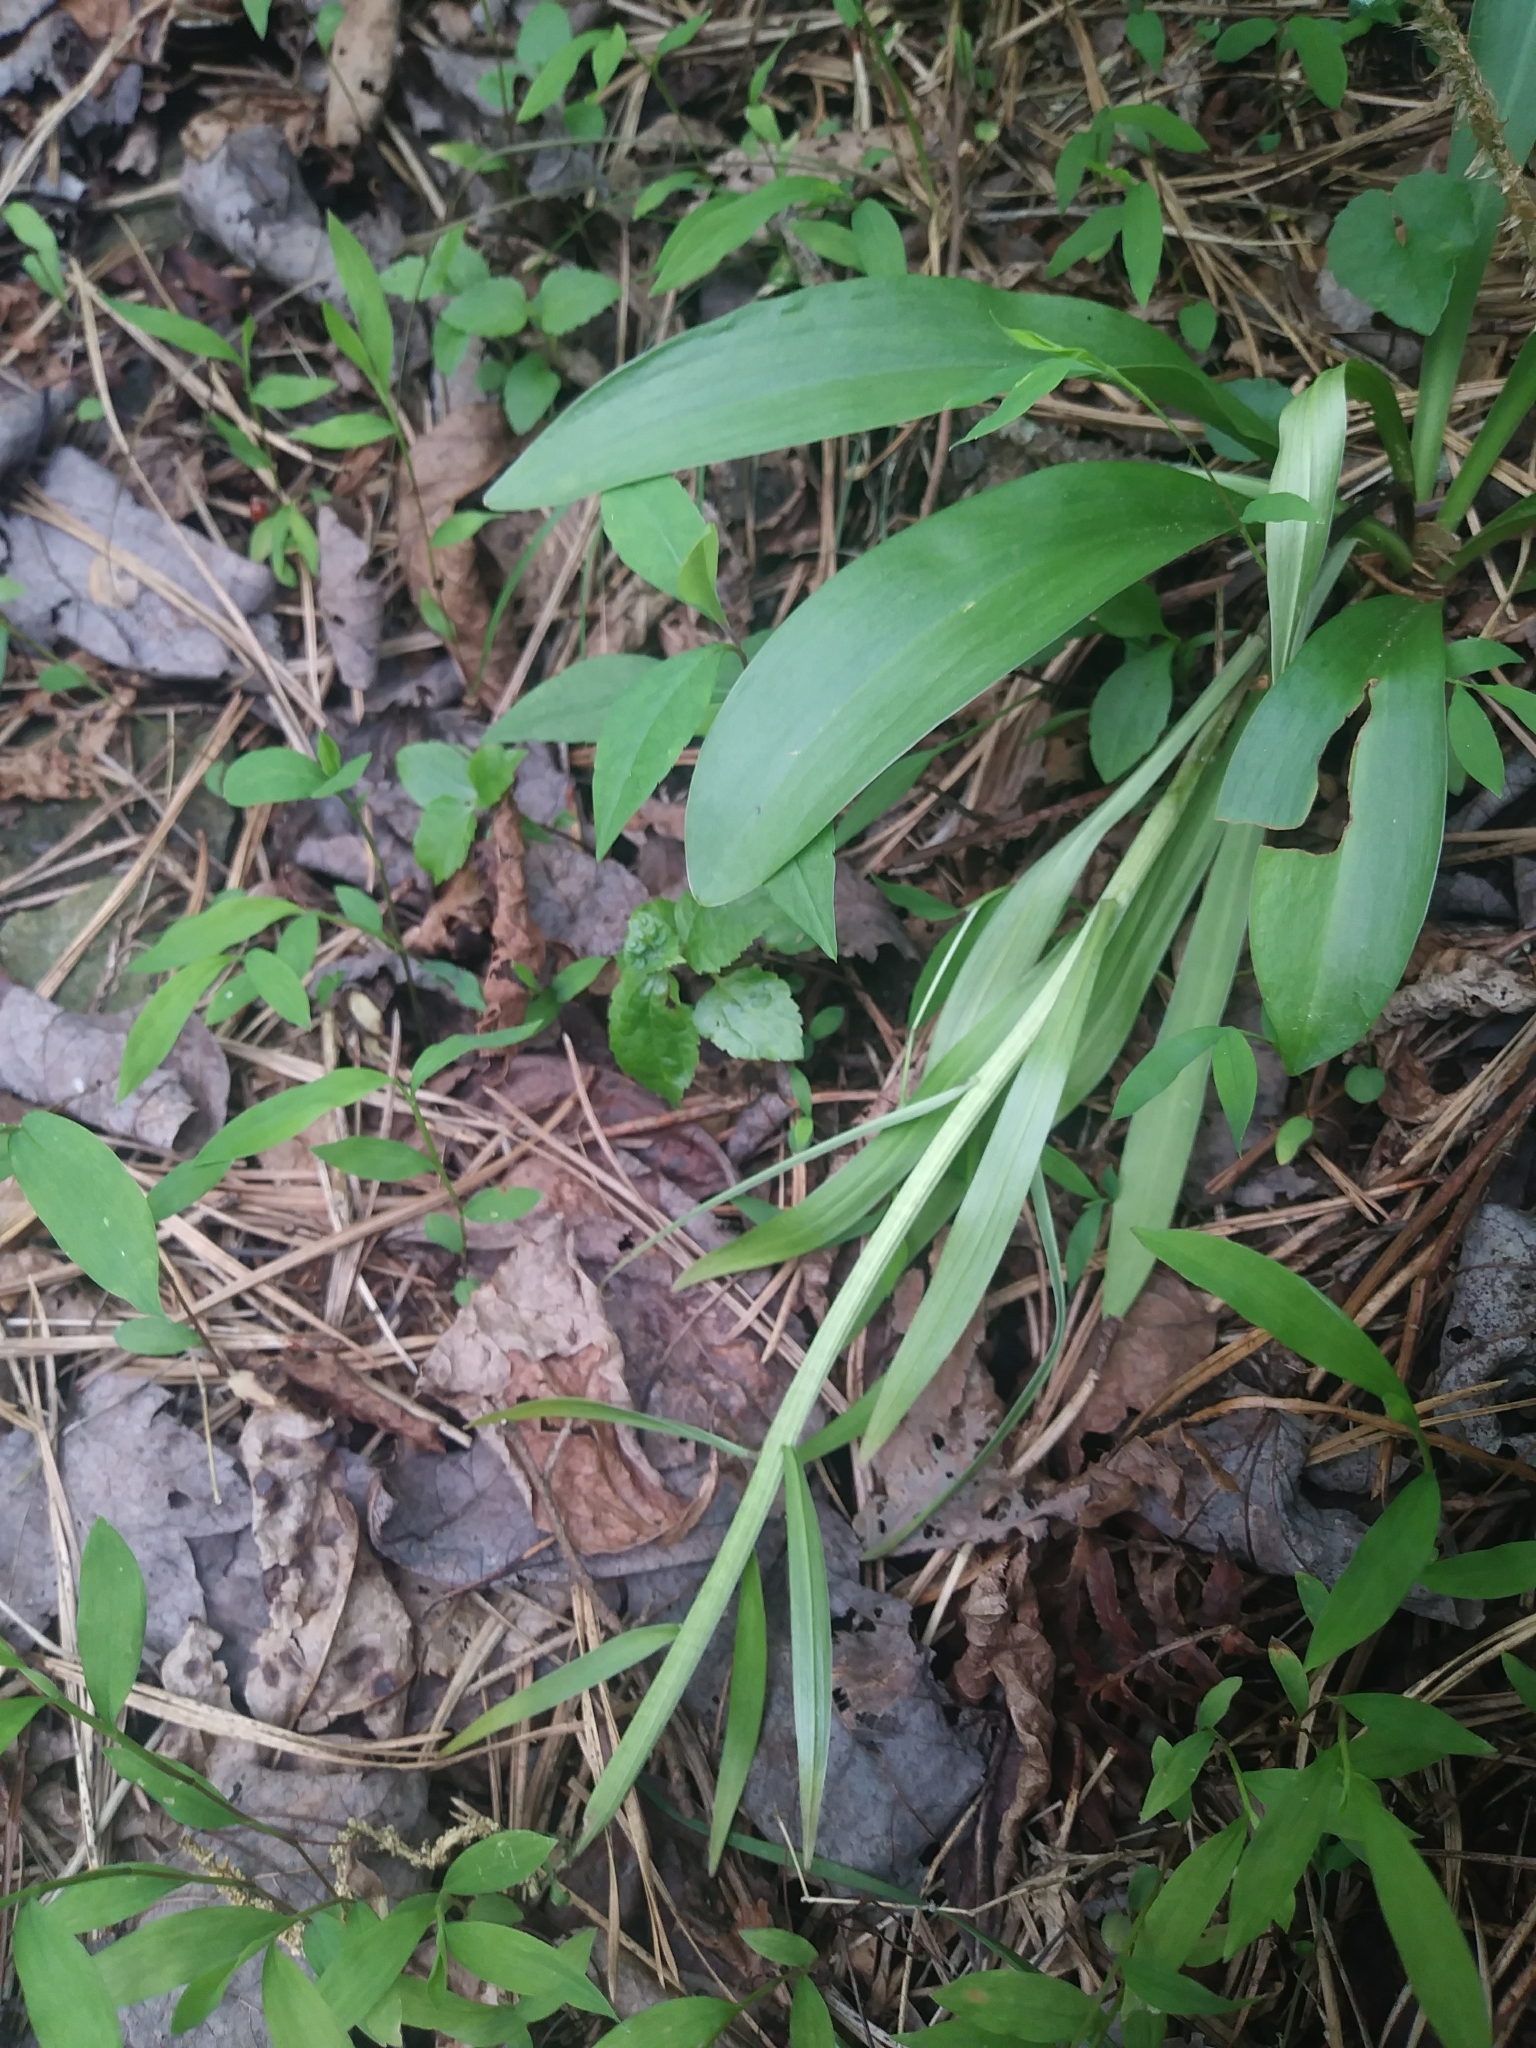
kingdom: Plantae
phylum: Tracheophyta
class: Liliopsida
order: Liliales
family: Melanthiaceae
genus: Chamaelirium
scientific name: Chamaelirium luteum
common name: Fairy-wand
